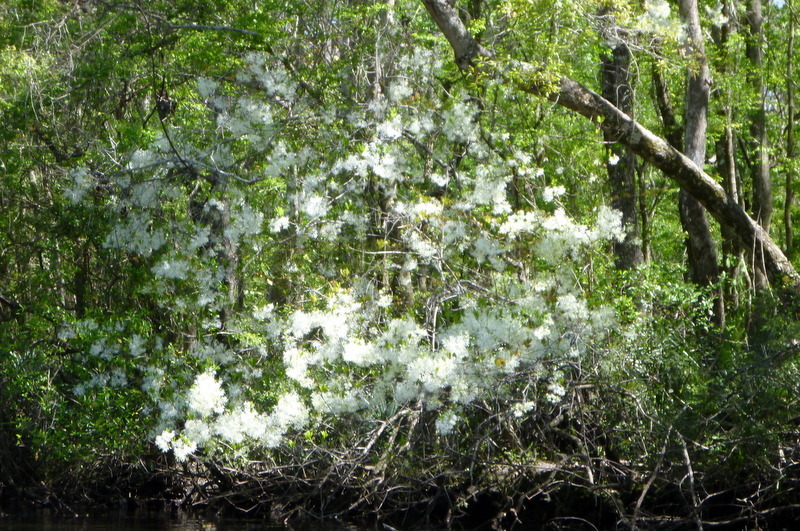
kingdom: Plantae
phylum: Tracheophyta
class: Magnoliopsida
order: Lamiales
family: Oleaceae
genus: Chionanthus
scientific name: Chionanthus virginicus
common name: American fringetree
